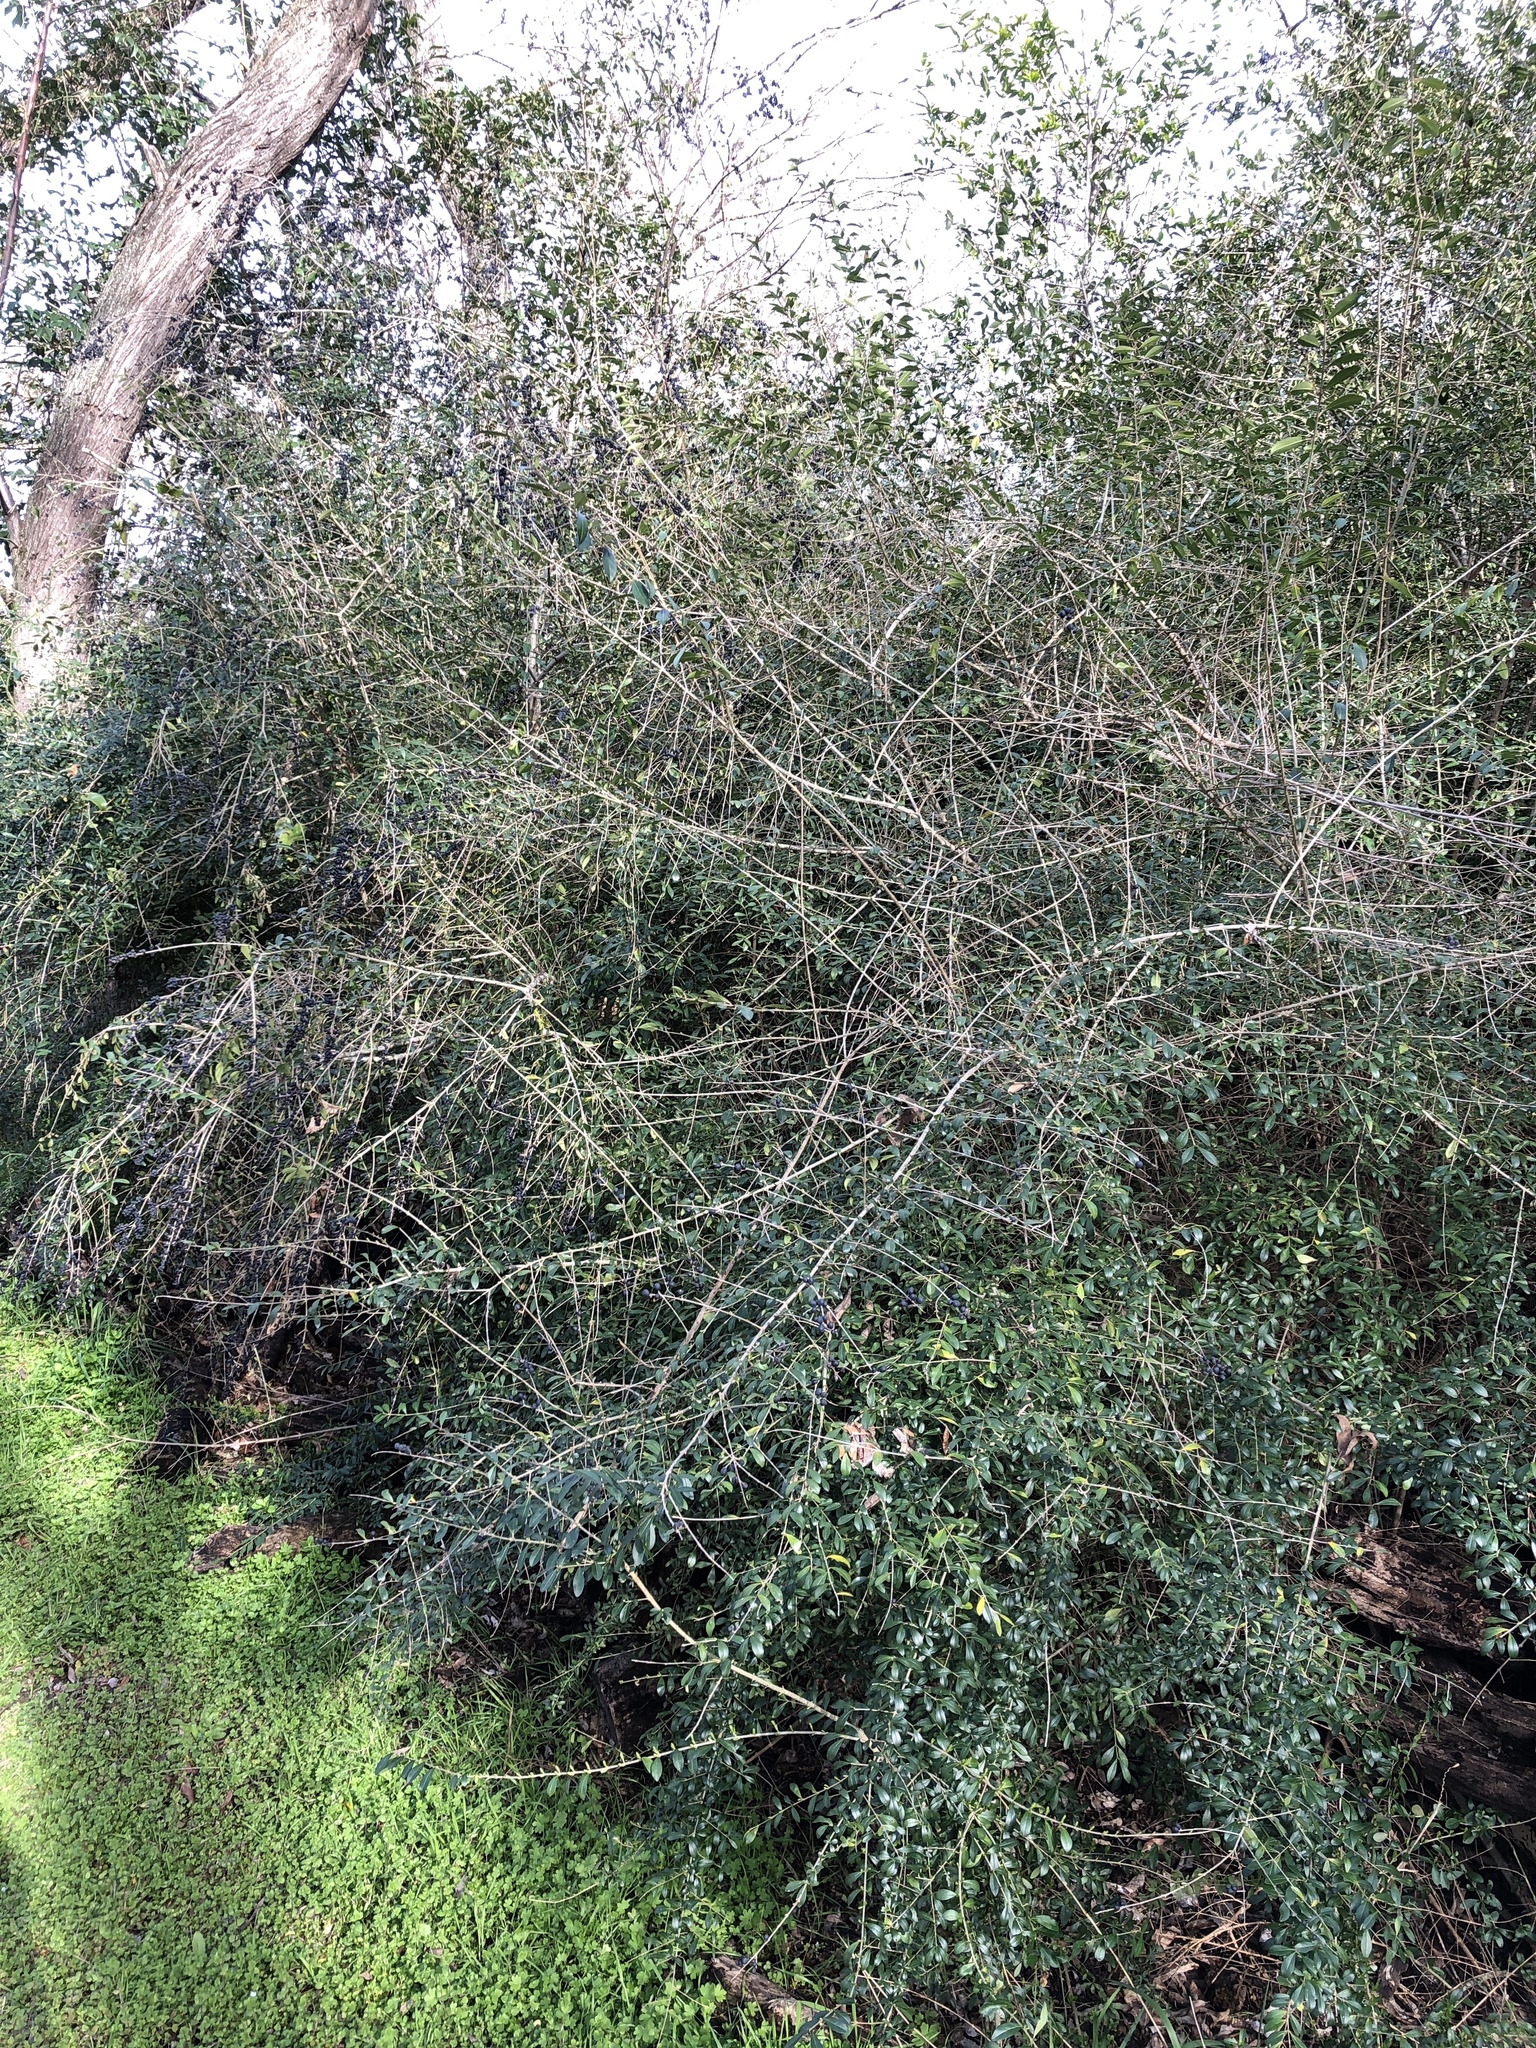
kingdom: Plantae
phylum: Tracheophyta
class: Magnoliopsida
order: Lamiales
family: Oleaceae
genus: Ligustrum
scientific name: Ligustrum quihoui
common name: Waxyleaf privet
